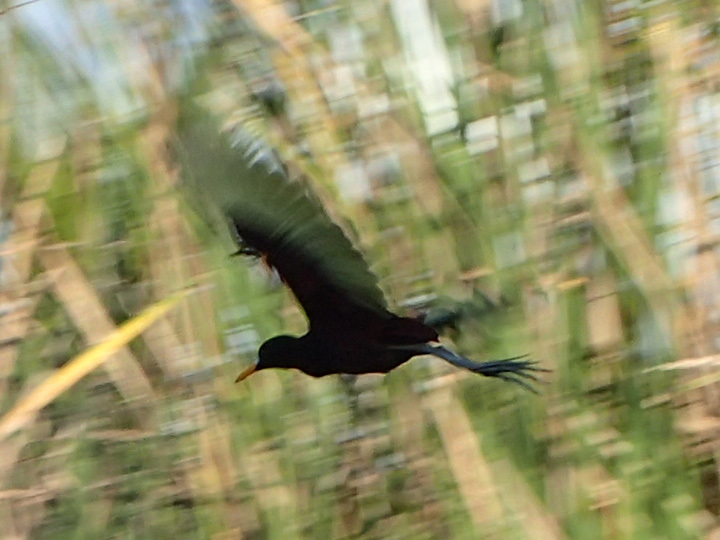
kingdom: Animalia
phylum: Chordata
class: Aves
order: Charadriiformes
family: Jacanidae
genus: Jacana
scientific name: Jacana spinosa
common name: Northern jacana
